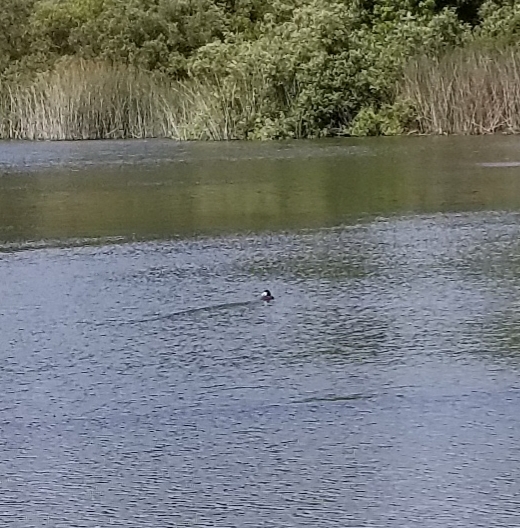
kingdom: Animalia
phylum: Chordata
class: Aves
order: Anseriformes
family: Anatidae
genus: Oxyura
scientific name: Oxyura jamaicensis
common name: Ruddy duck
